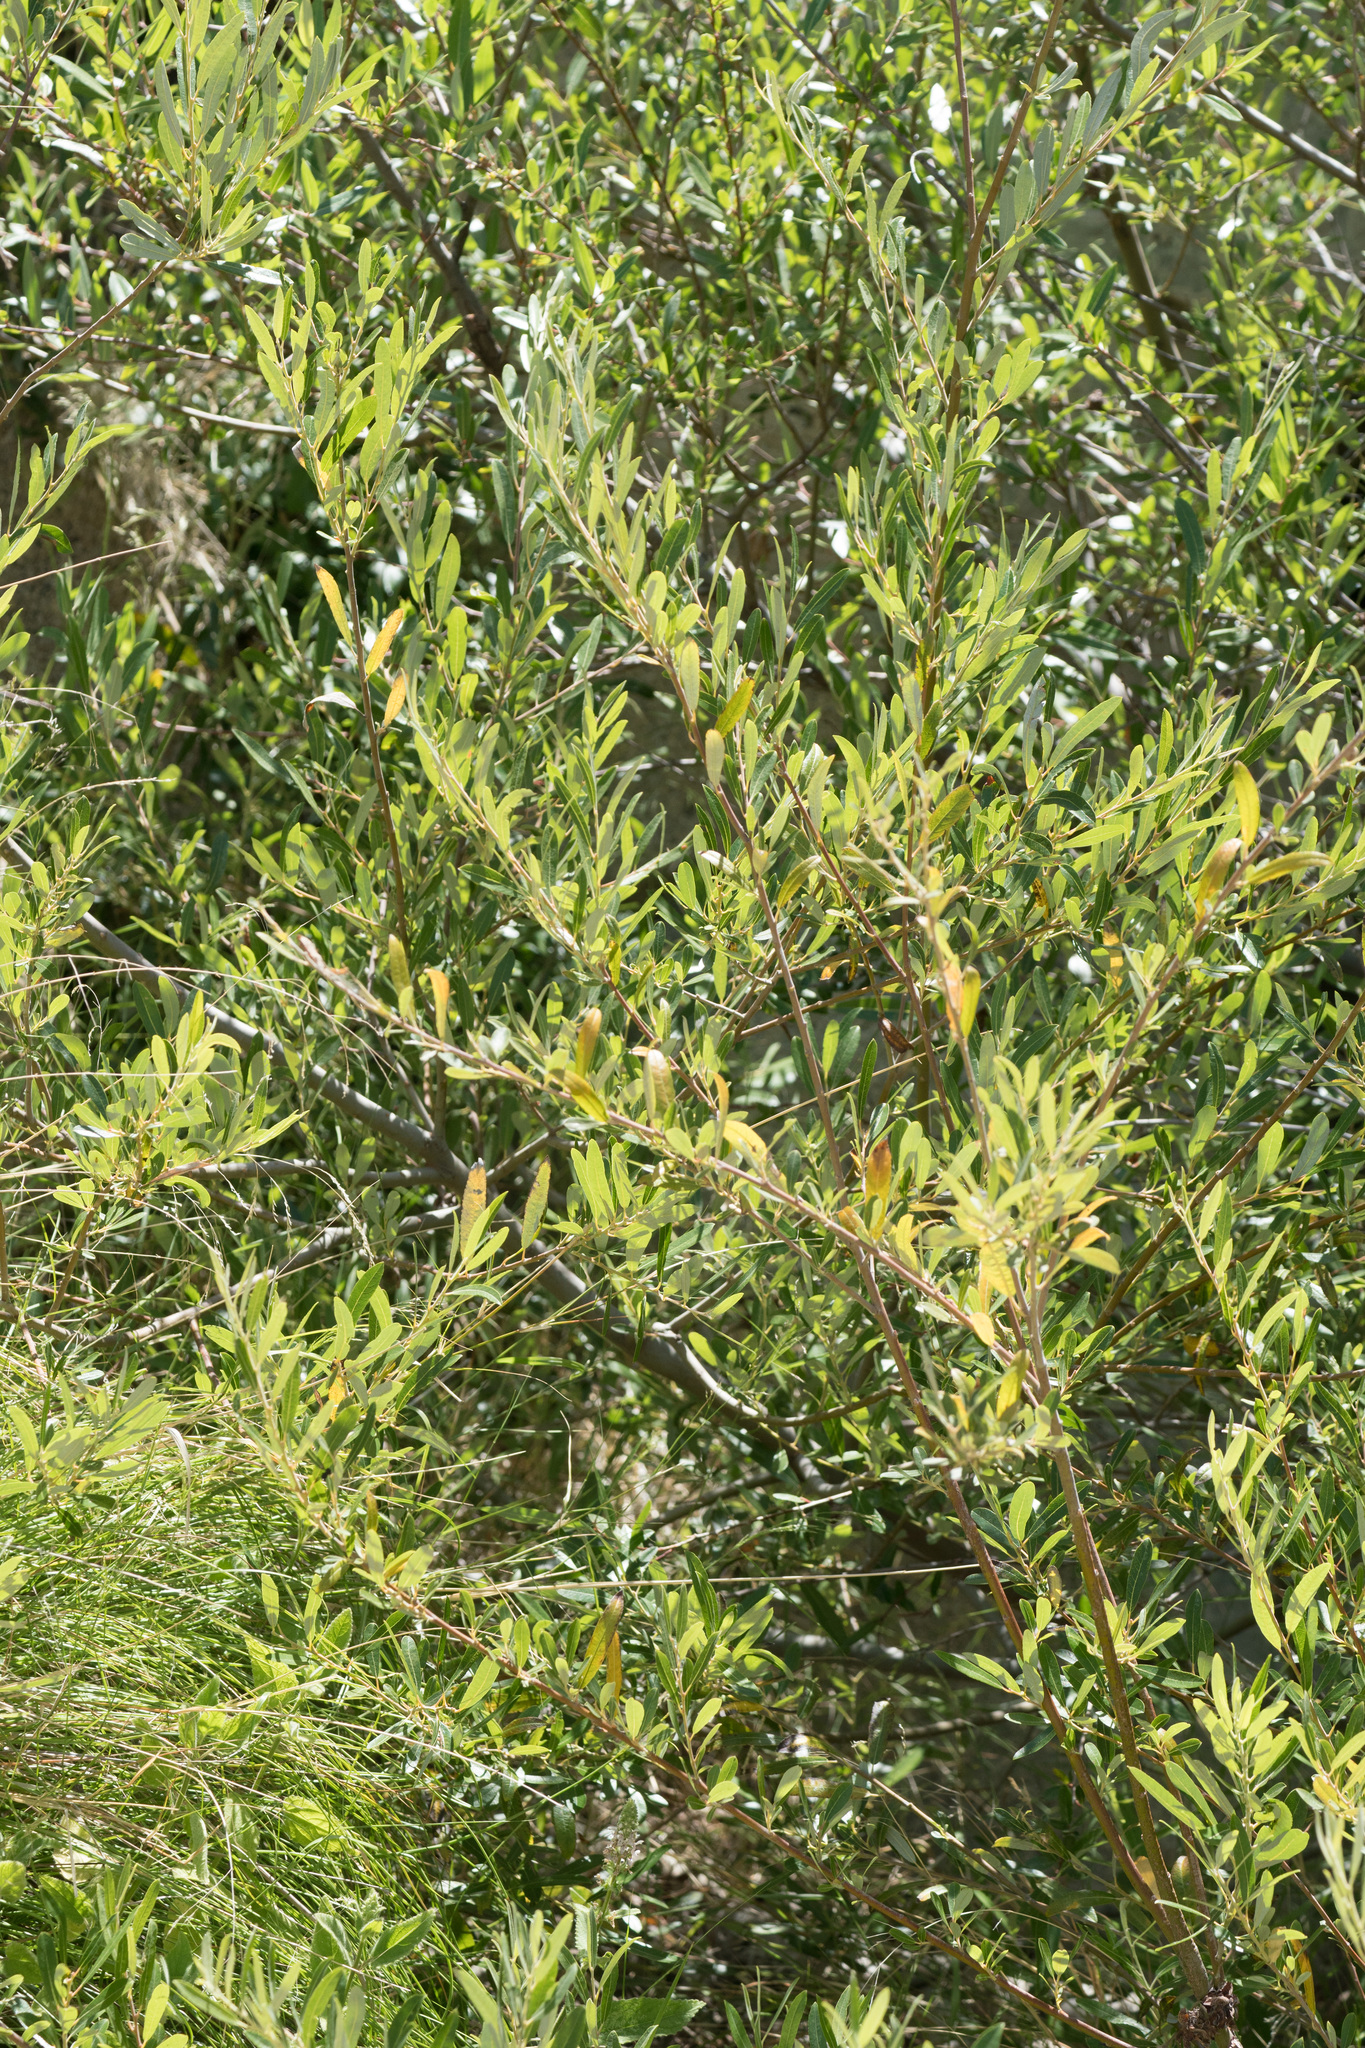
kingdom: Plantae
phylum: Tracheophyta
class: Magnoliopsida
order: Malpighiales
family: Salicaceae
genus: Salix
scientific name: Salix lasiolepis
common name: Arroyo willow
